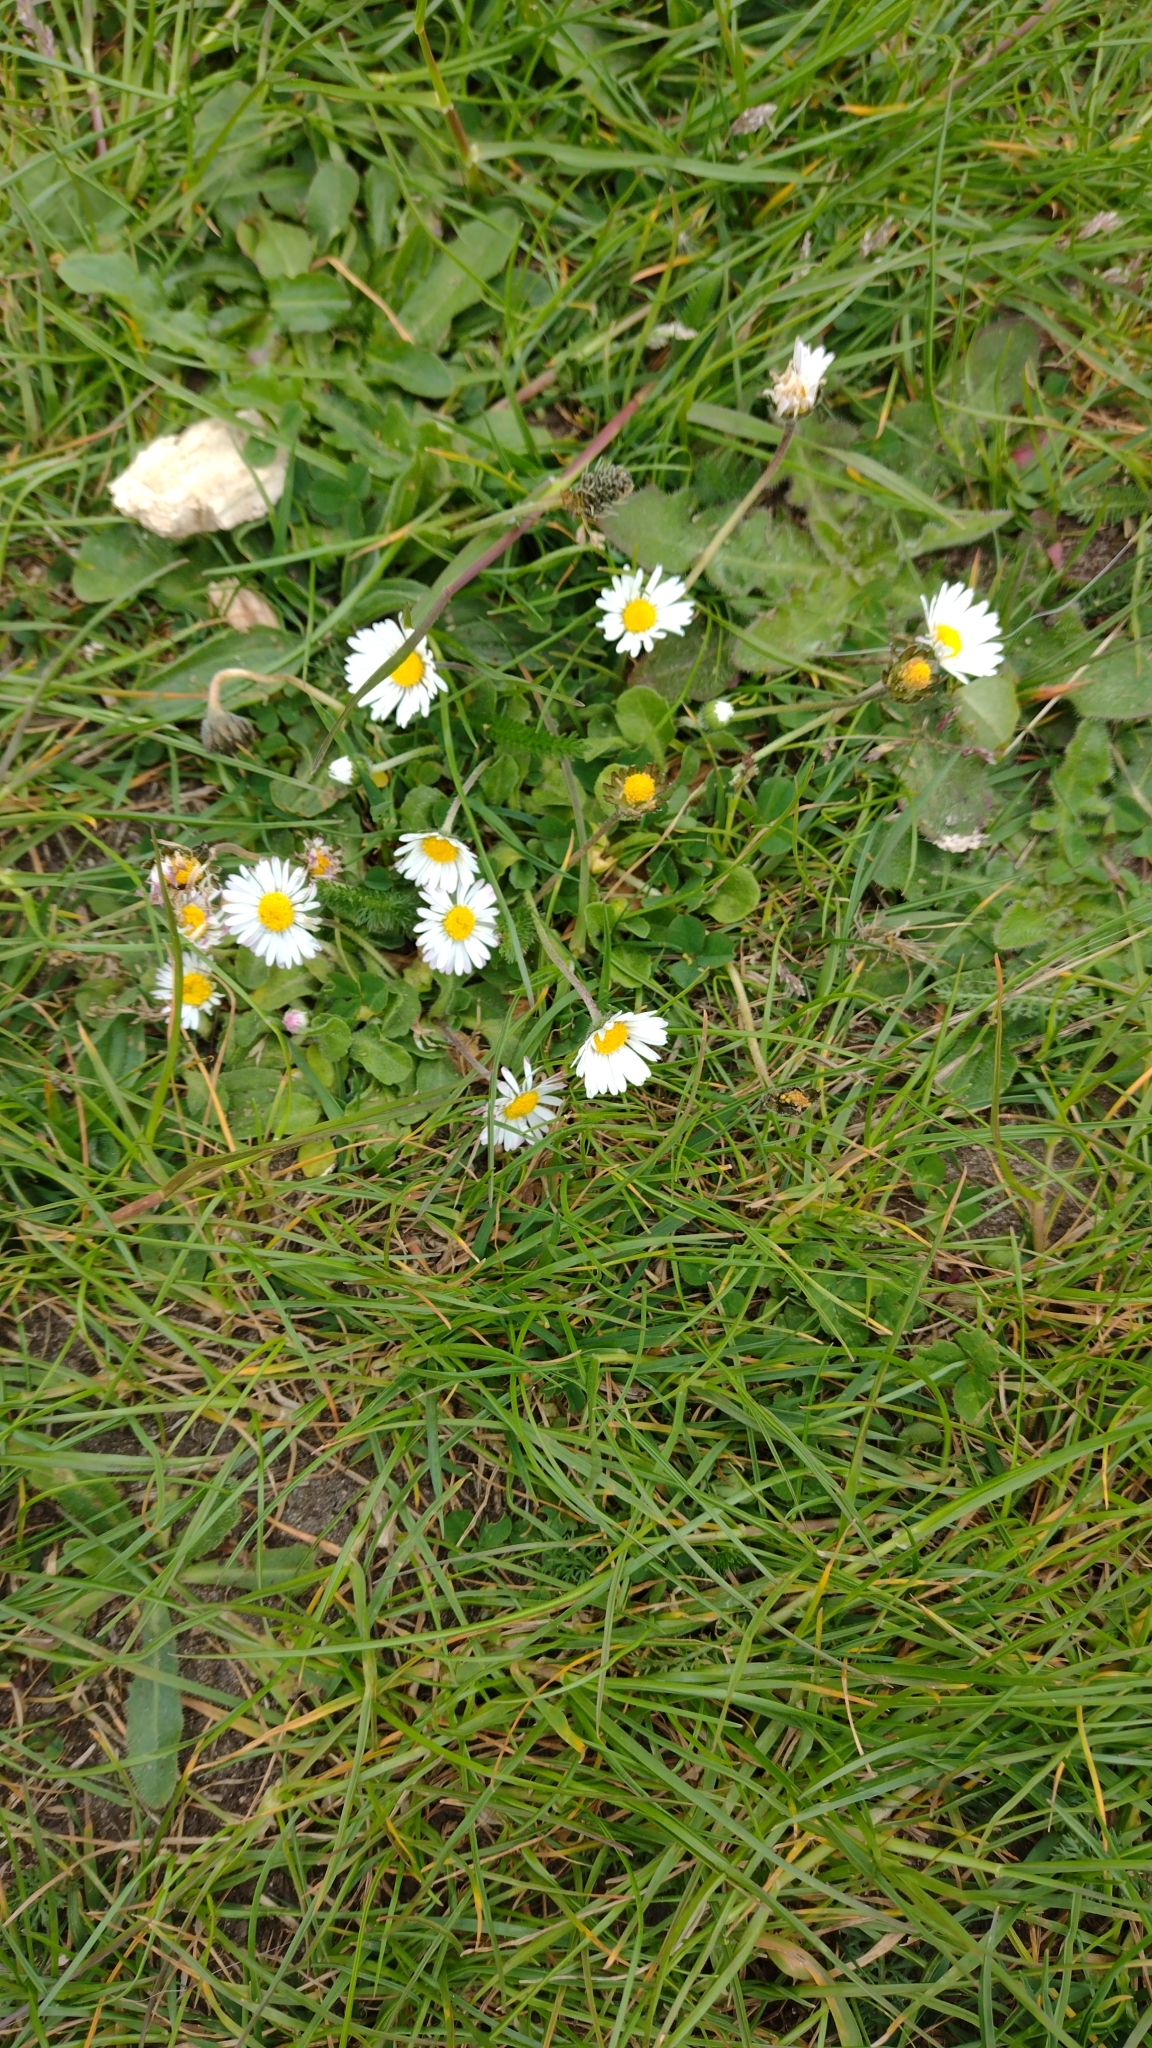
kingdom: Plantae
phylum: Tracheophyta
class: Magnoliopsida
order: Asterales
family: Asteraceae
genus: Bellis
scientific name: Bellis perennis
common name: Lawndaisy
